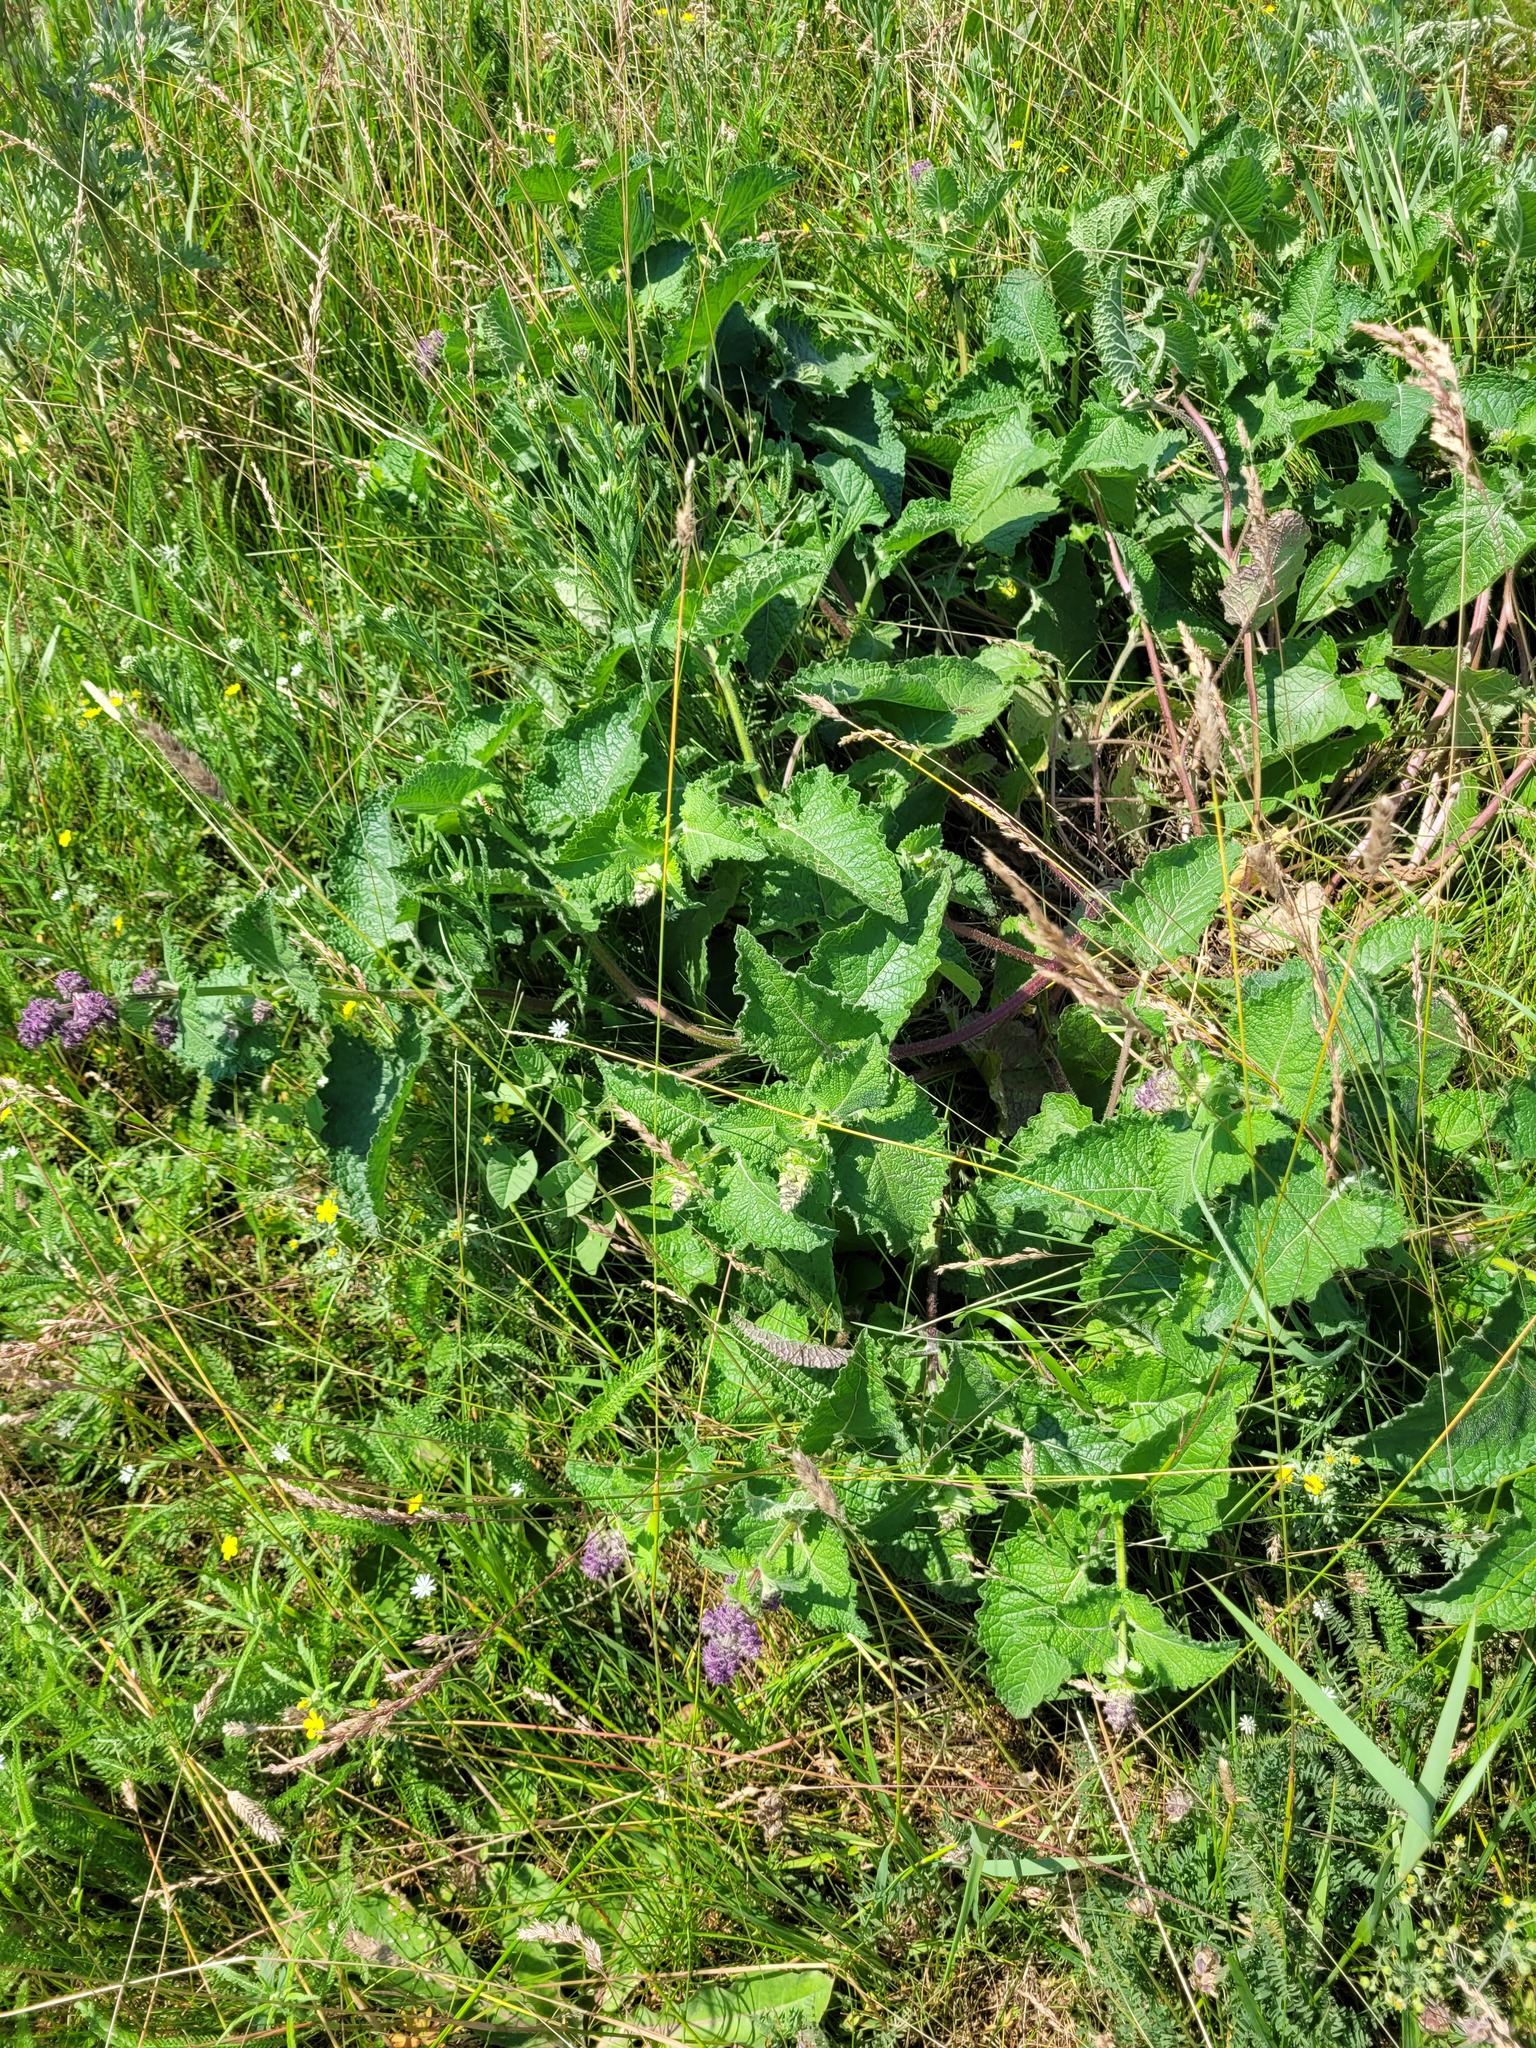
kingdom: Plantae
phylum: Tracheophyta
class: Magnoliopsida
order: Lamiales
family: Lamiaceae
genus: Salvia
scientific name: Salvia verticillata
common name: Whorled clary
